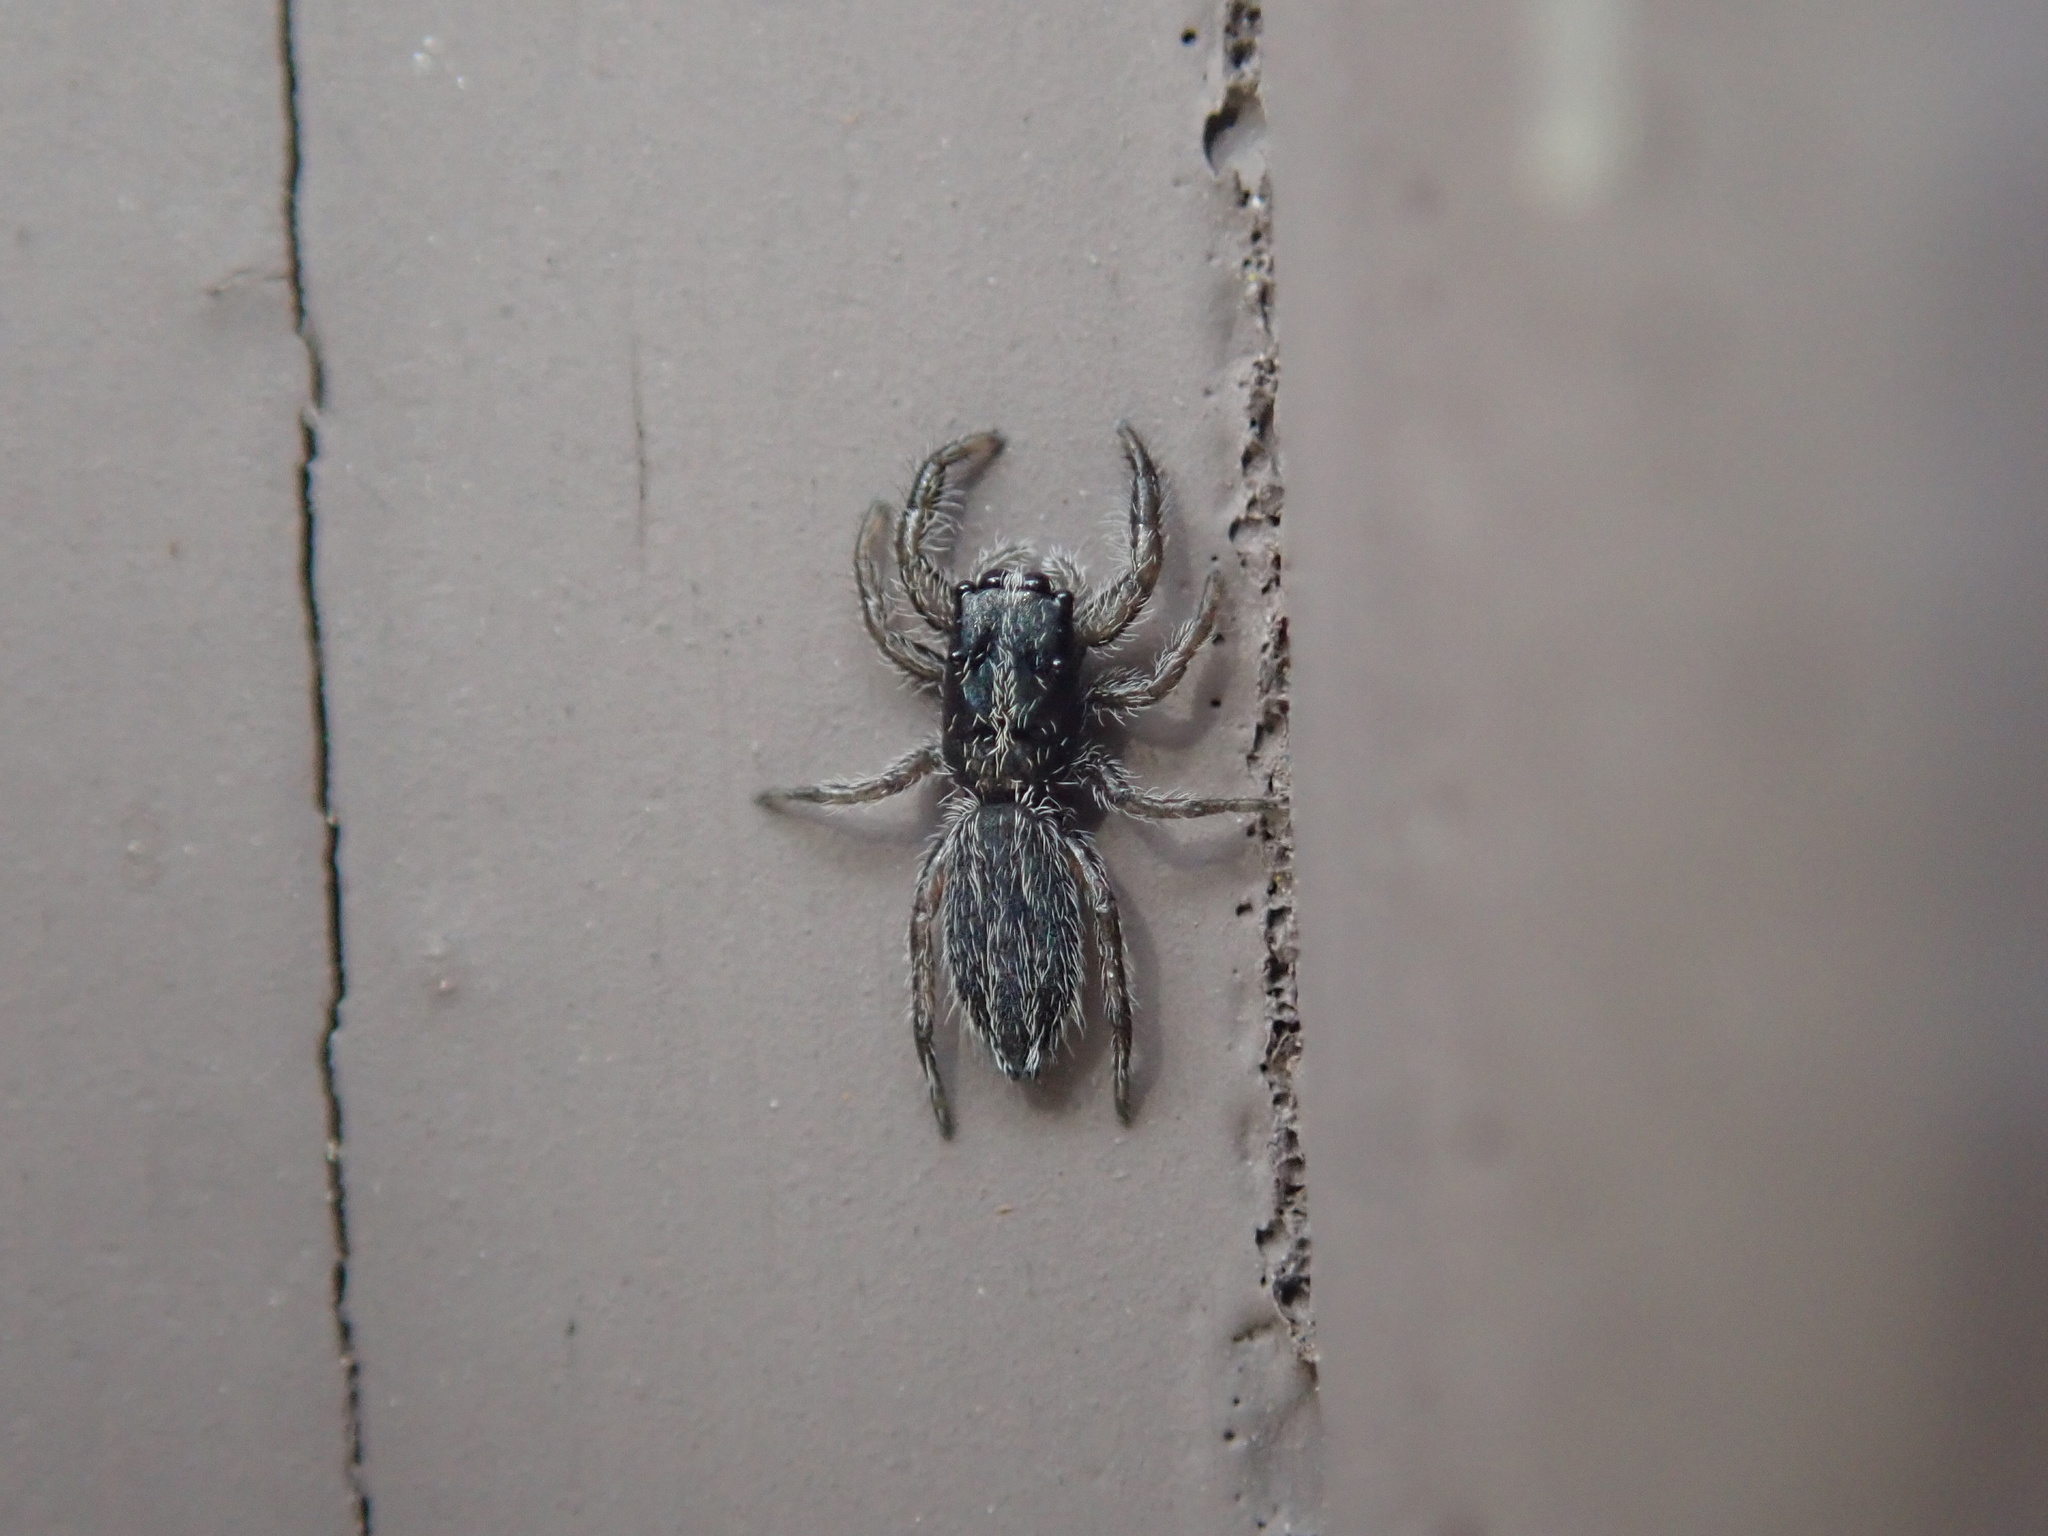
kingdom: Animalia
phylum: Arthropoda
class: Arachnida
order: Araneae
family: Salticidae
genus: Holoplatys
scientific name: Holoplatys apressus
